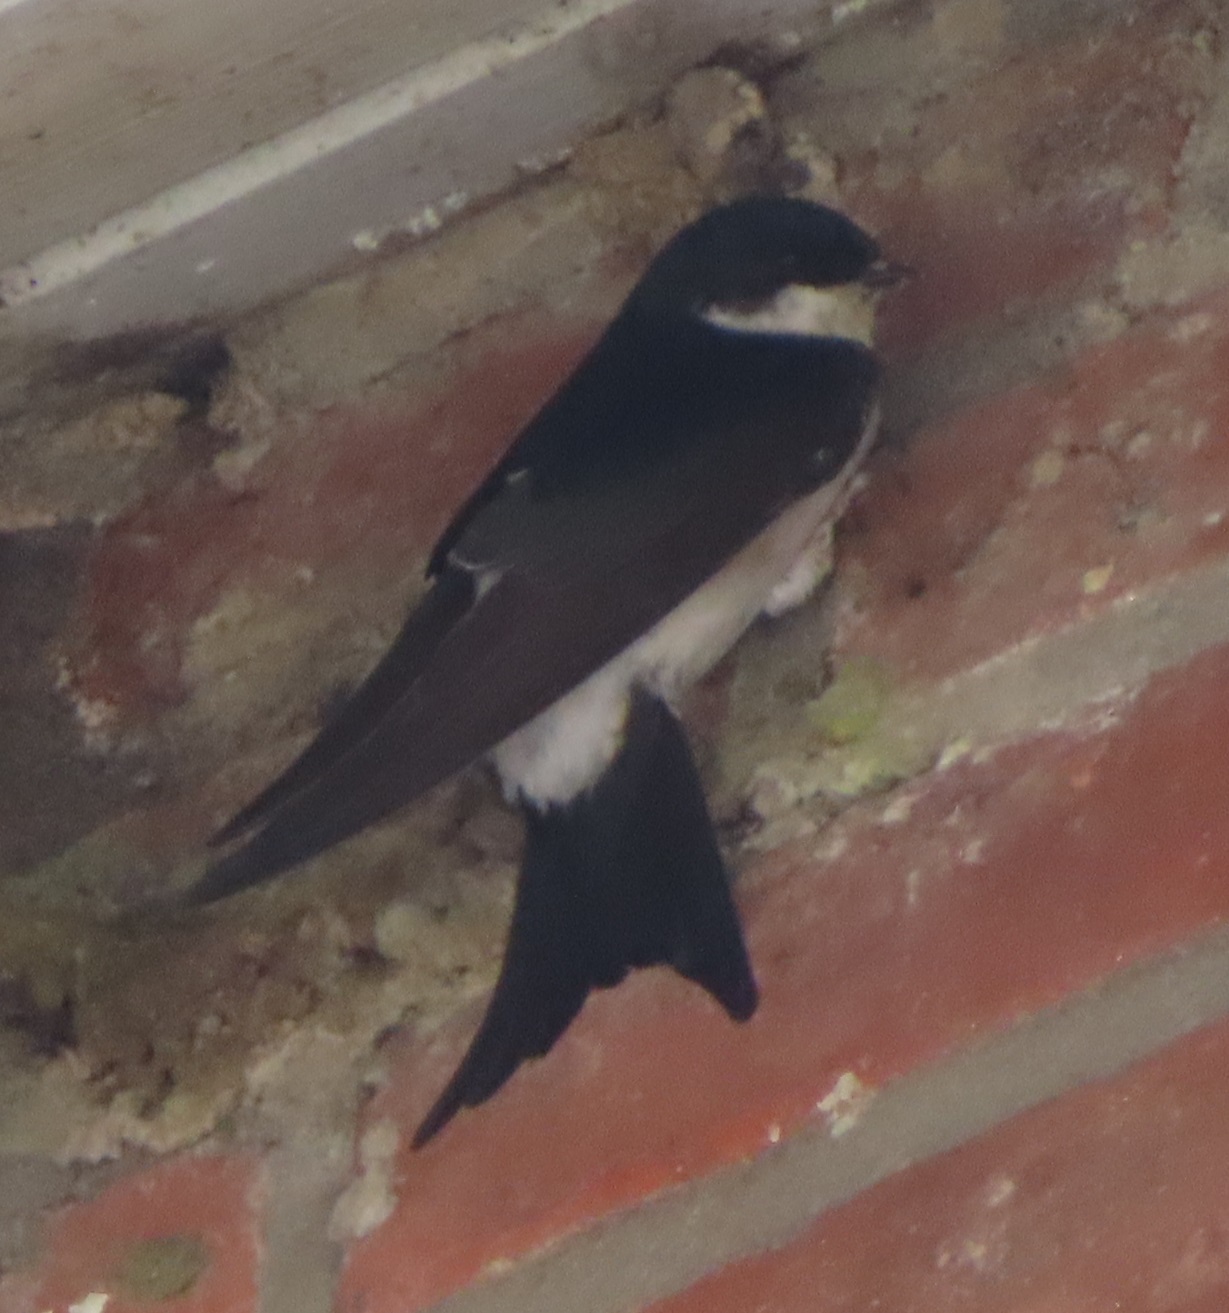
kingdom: Animalia
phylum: Chordata
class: Aves
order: Passeriformes
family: Hirundinidae
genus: Delichon
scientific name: Delichon urbicum
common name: Common house martin
